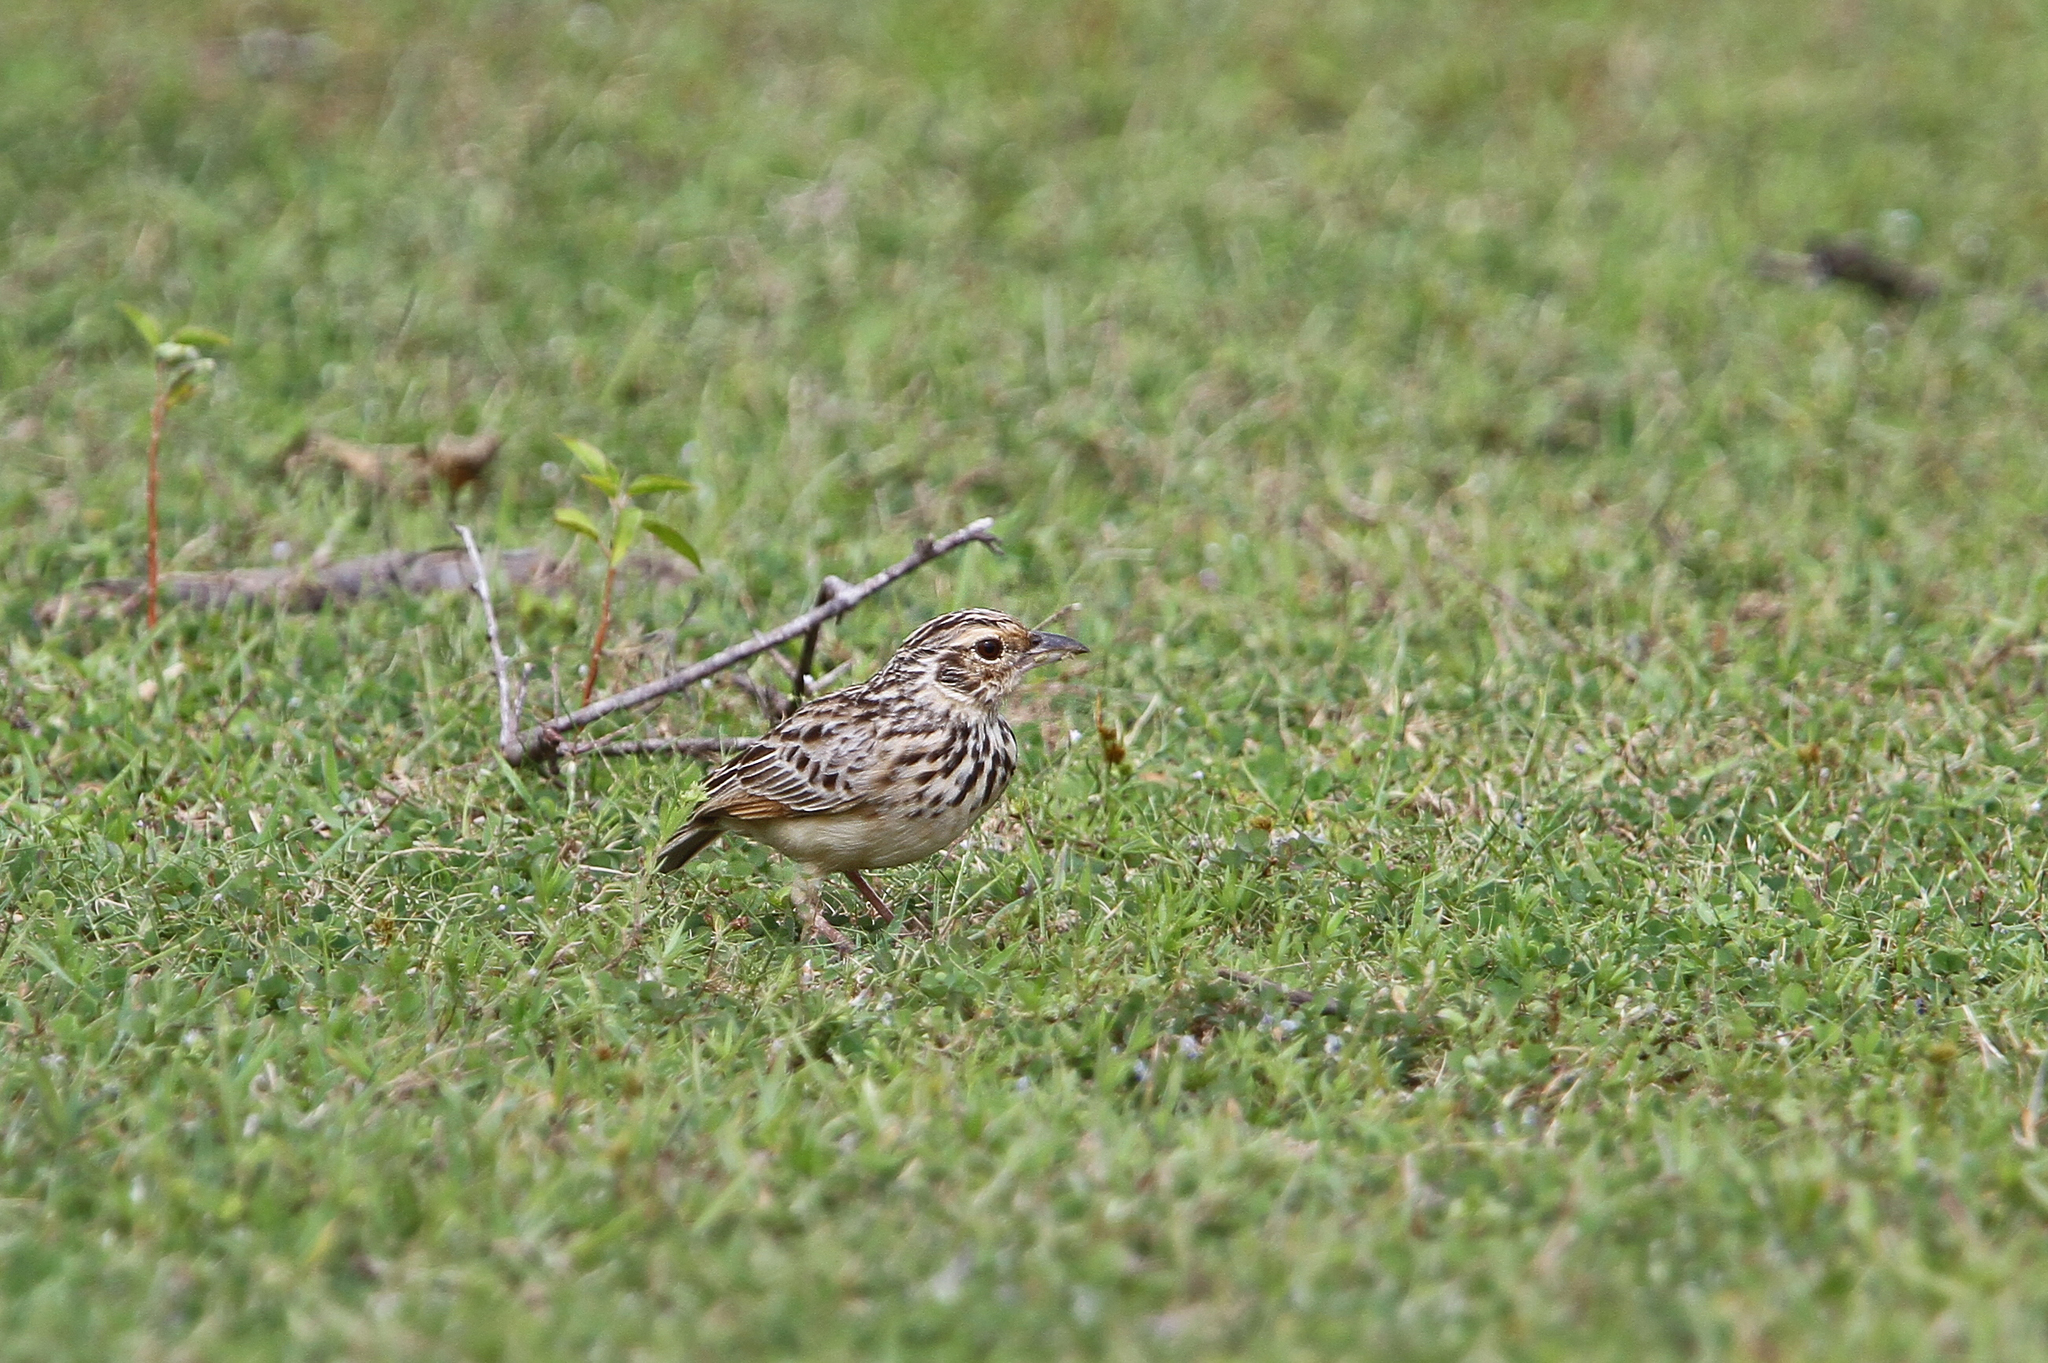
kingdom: Animalia
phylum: Chordata
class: Aves
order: Passeriformes
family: Alaudidae
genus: Mirafra
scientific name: Mirafra affinis
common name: Jerdon's bushlark
